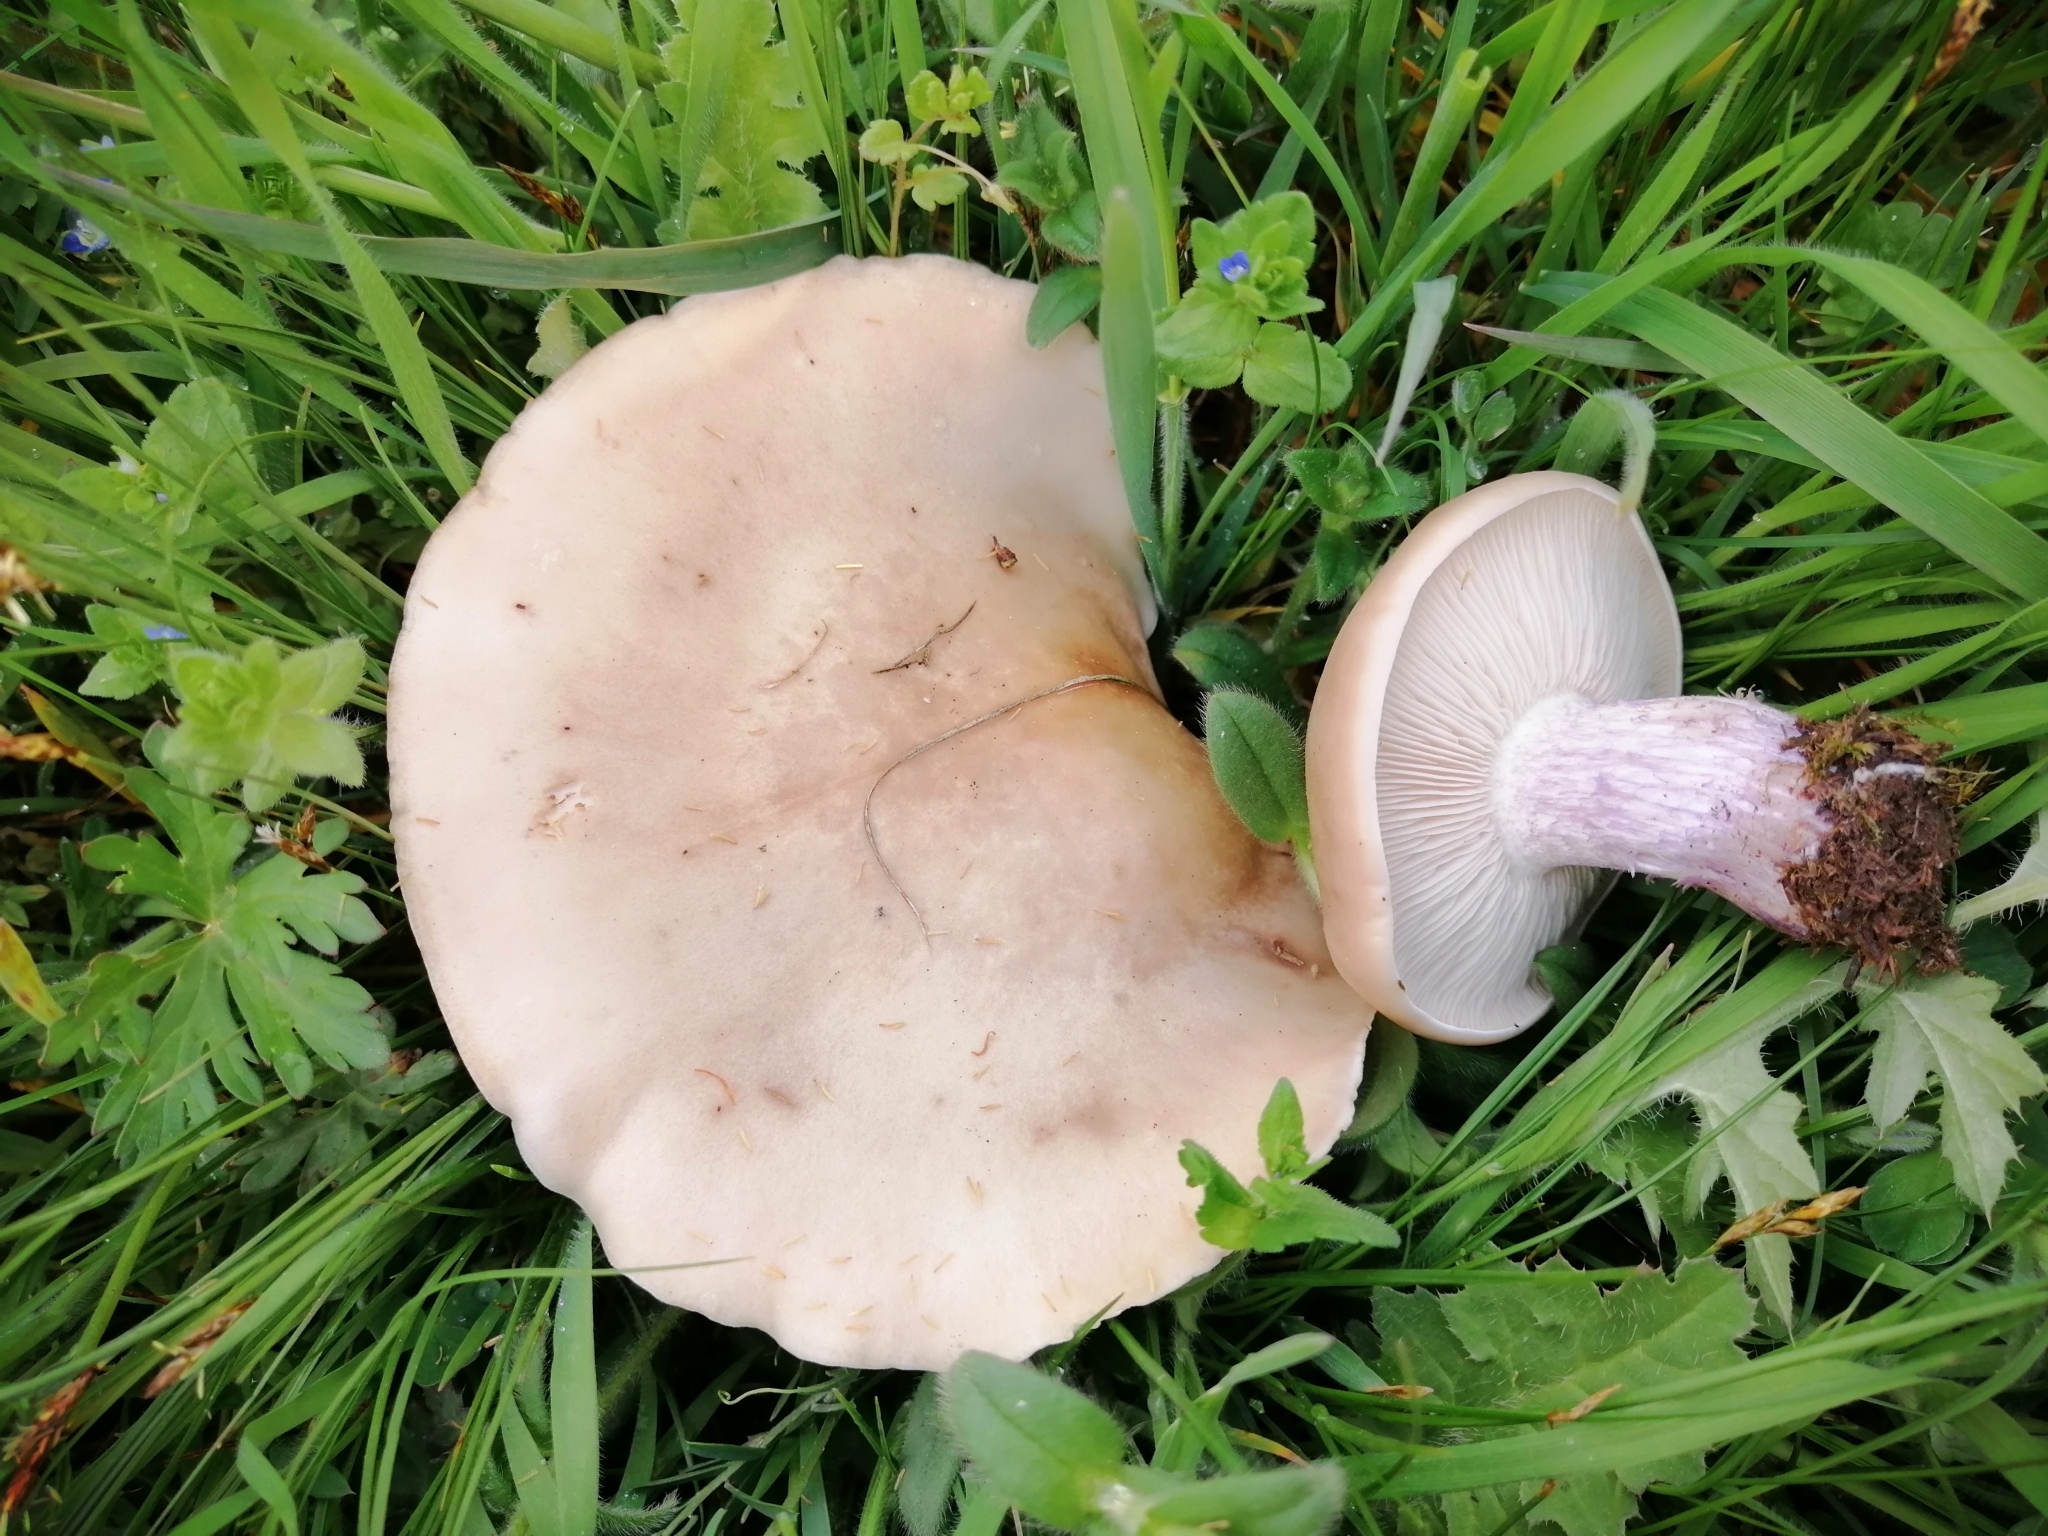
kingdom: Fungi
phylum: Basidiomycota
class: Agaricomycetes
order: Agaricales
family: Omphalotaceae
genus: Collybiopsis
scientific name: Collybiopsis peronata
